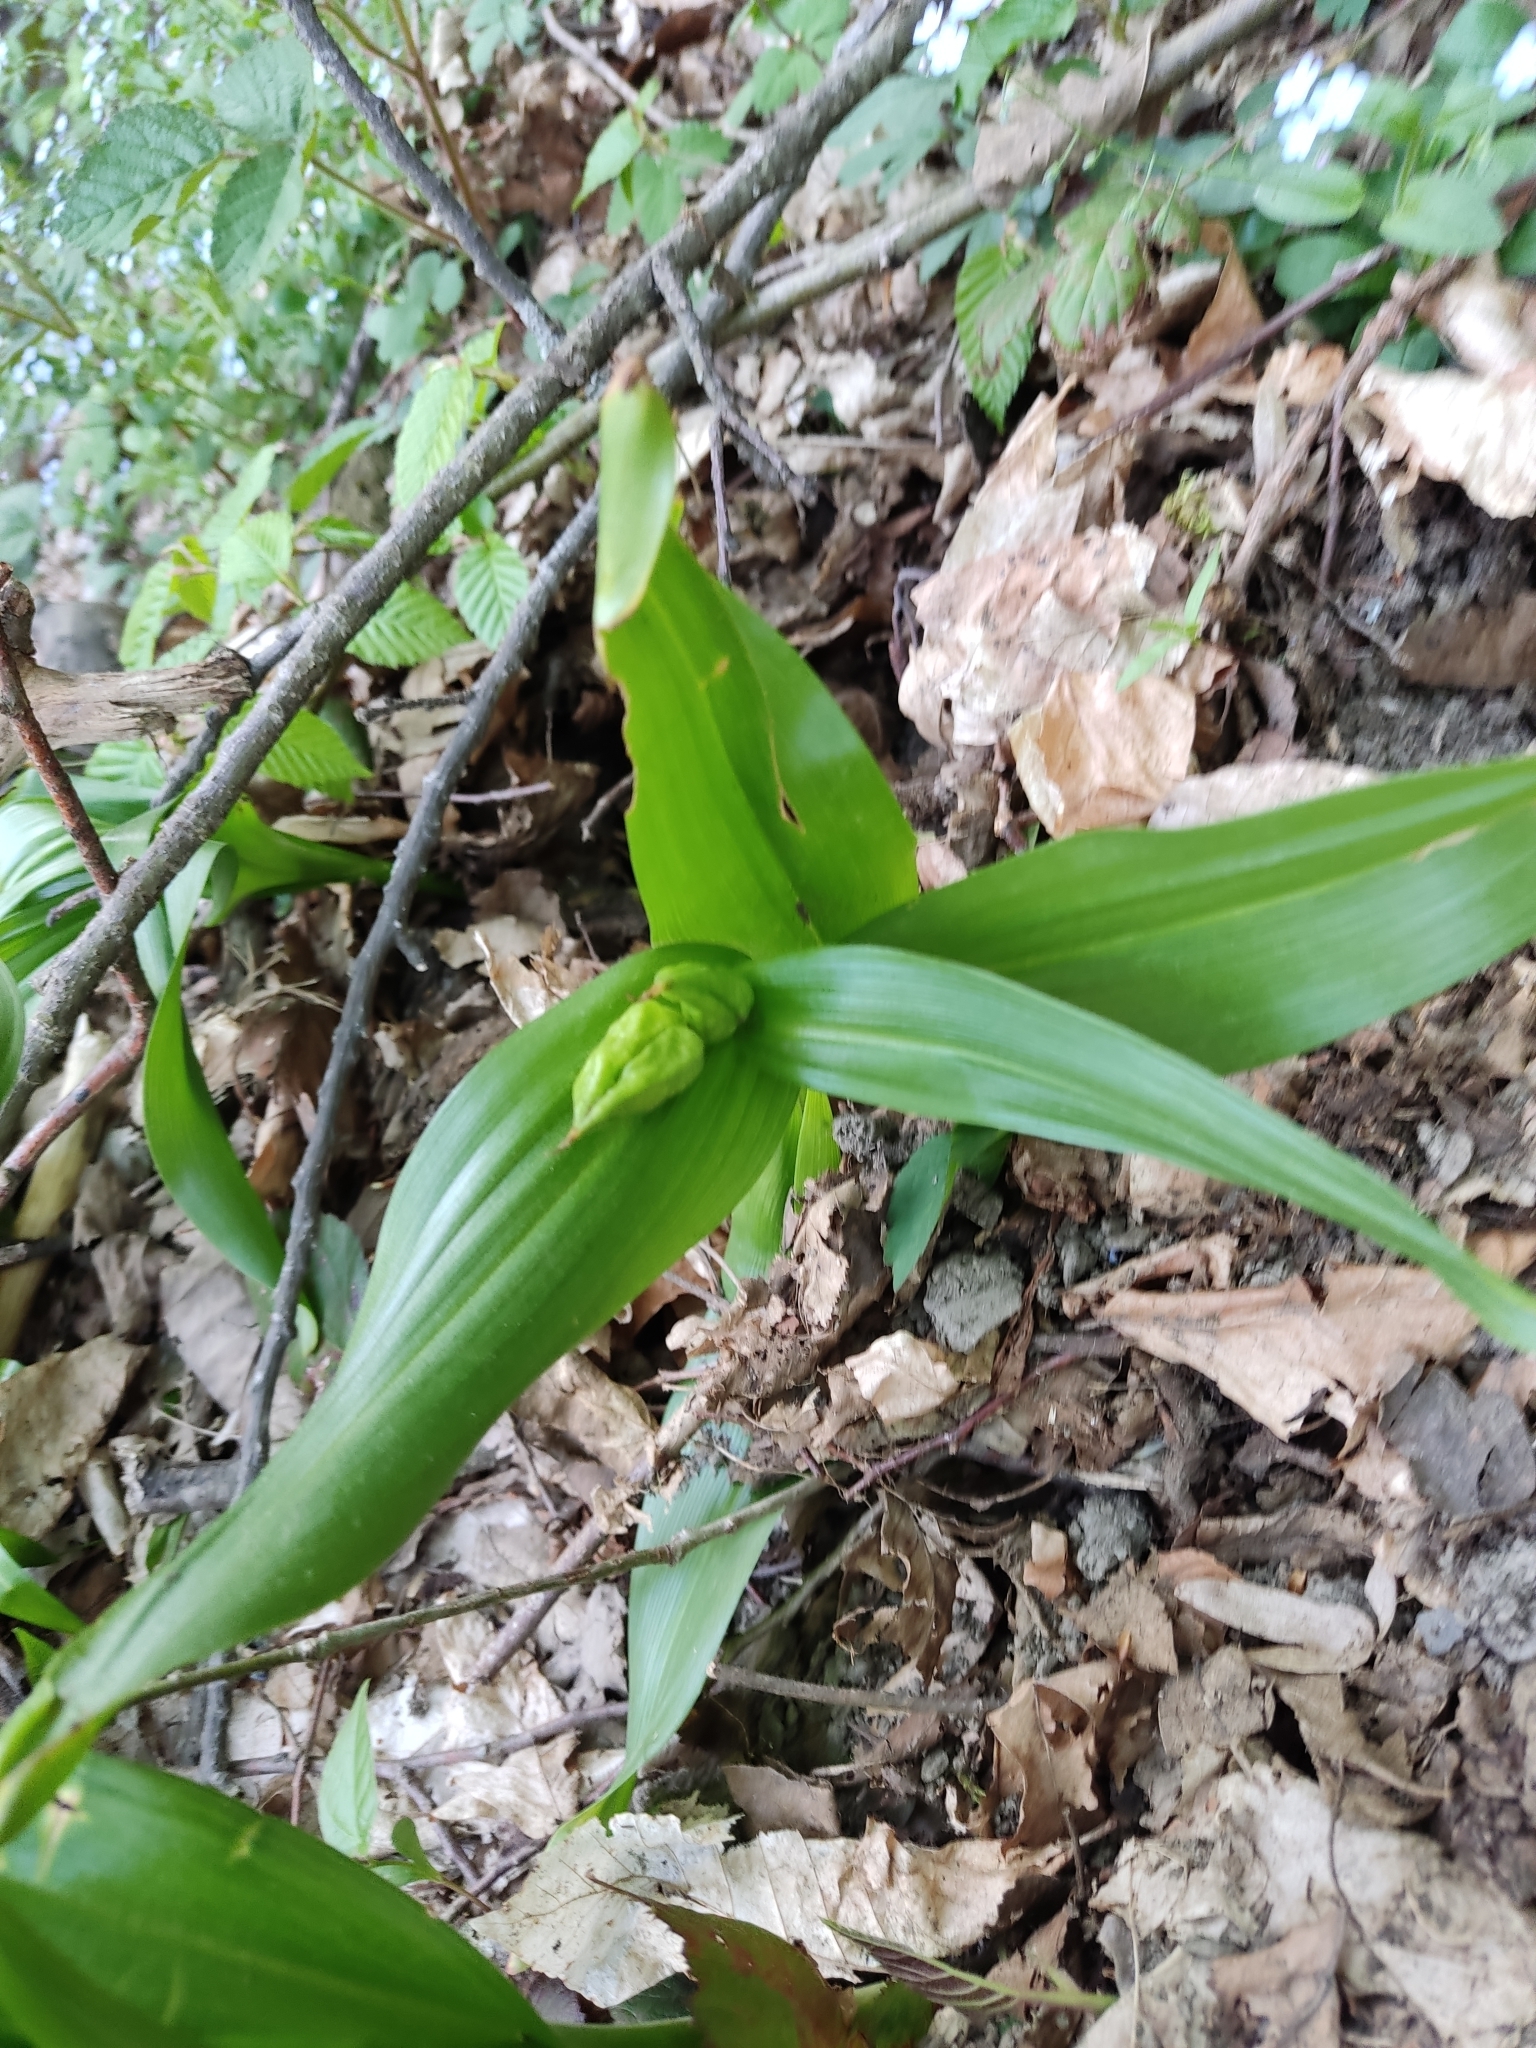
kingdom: Plantae
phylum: Tracheophyta
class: Liliopsida
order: Liliales
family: Colchicaceae
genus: Colchicum
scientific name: Colchicum speciosum
